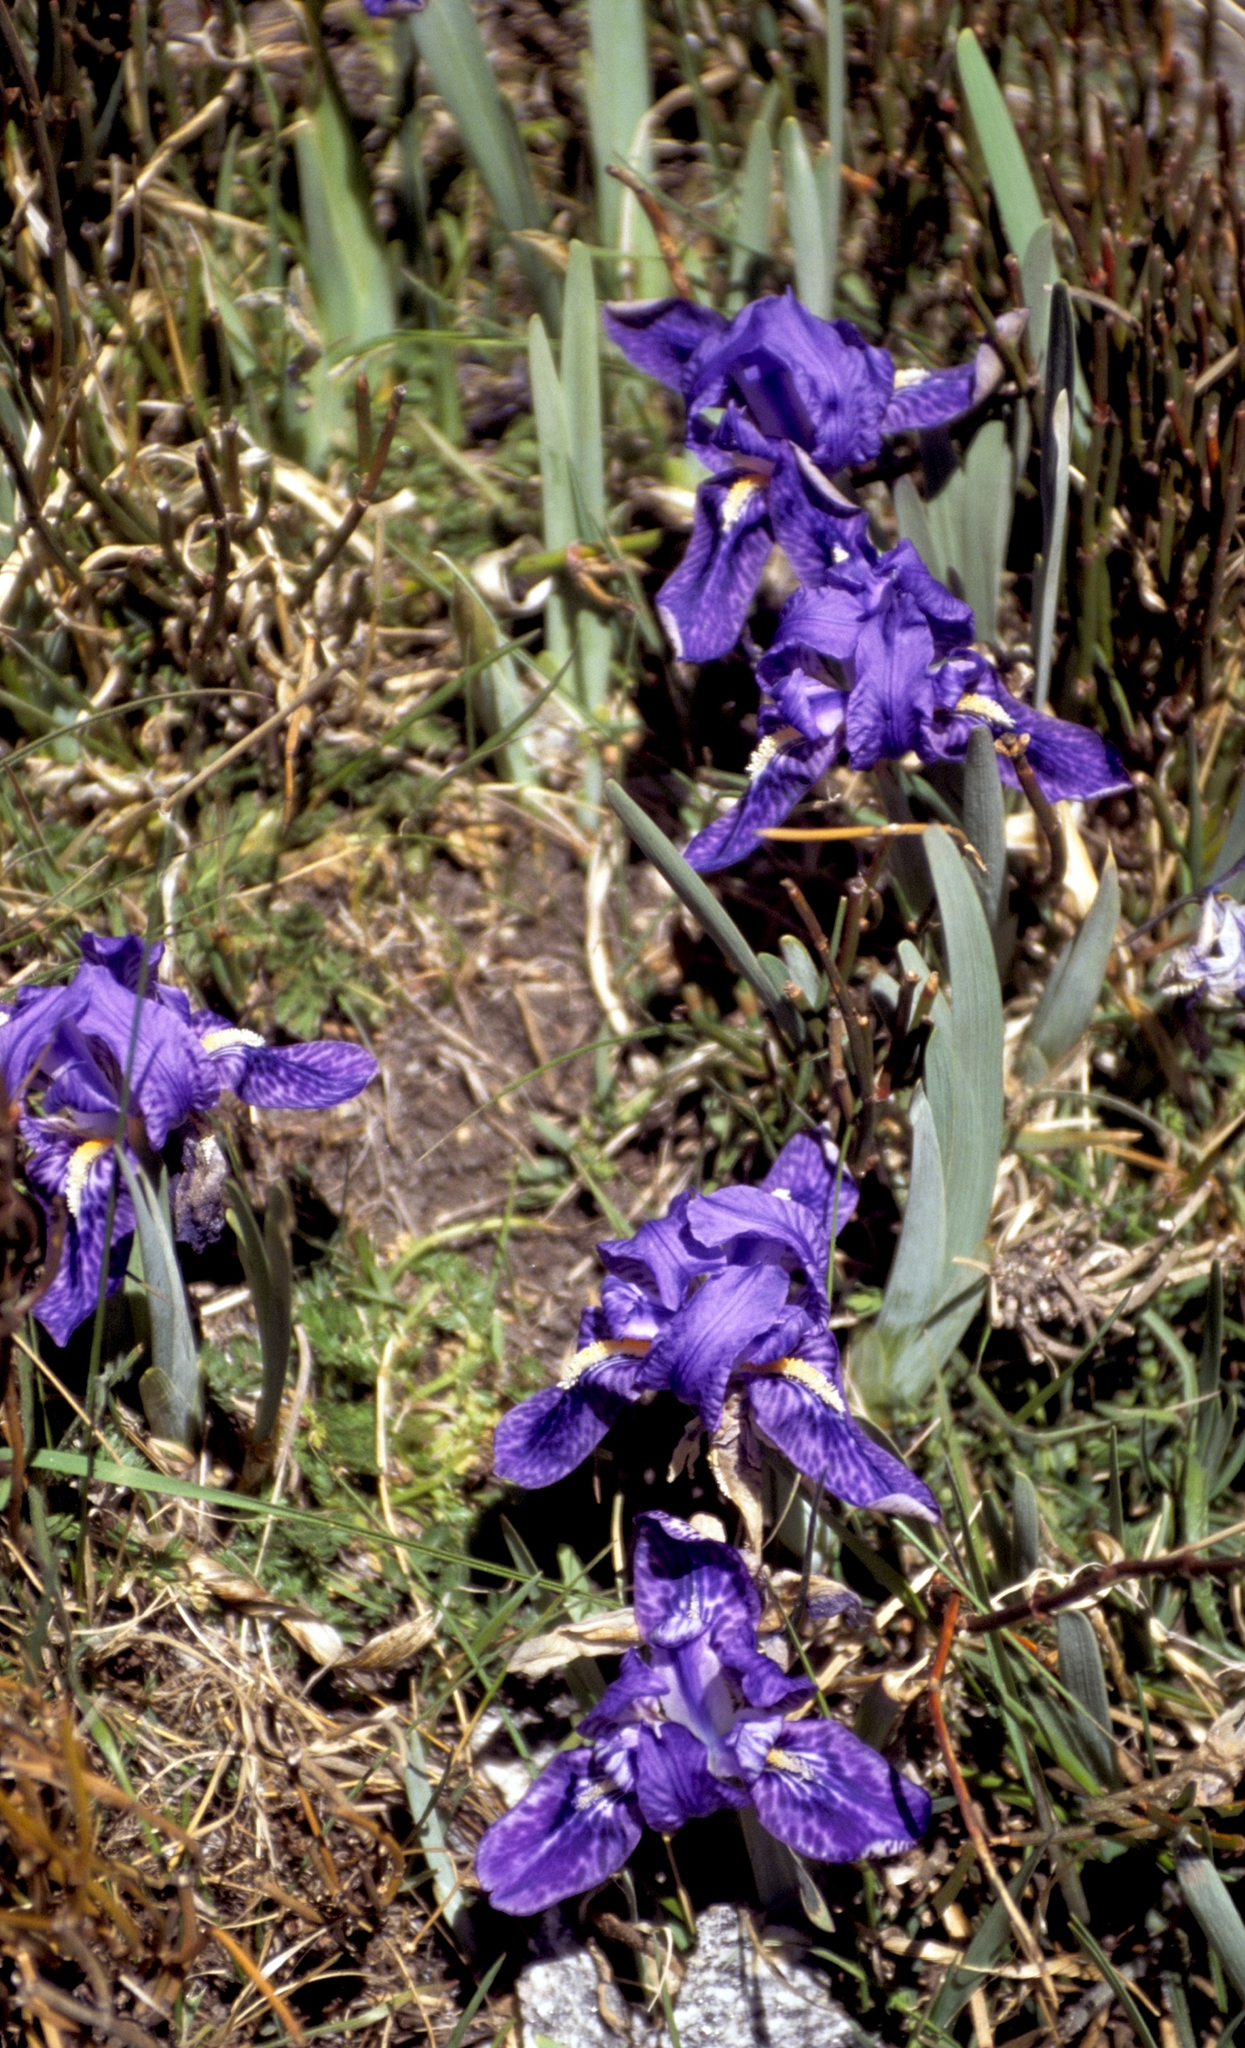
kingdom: Plantae
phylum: Tracheophyta
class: Liliopsida
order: Asparagales
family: Iridaceae
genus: Iris
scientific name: Iris kemaonensis
